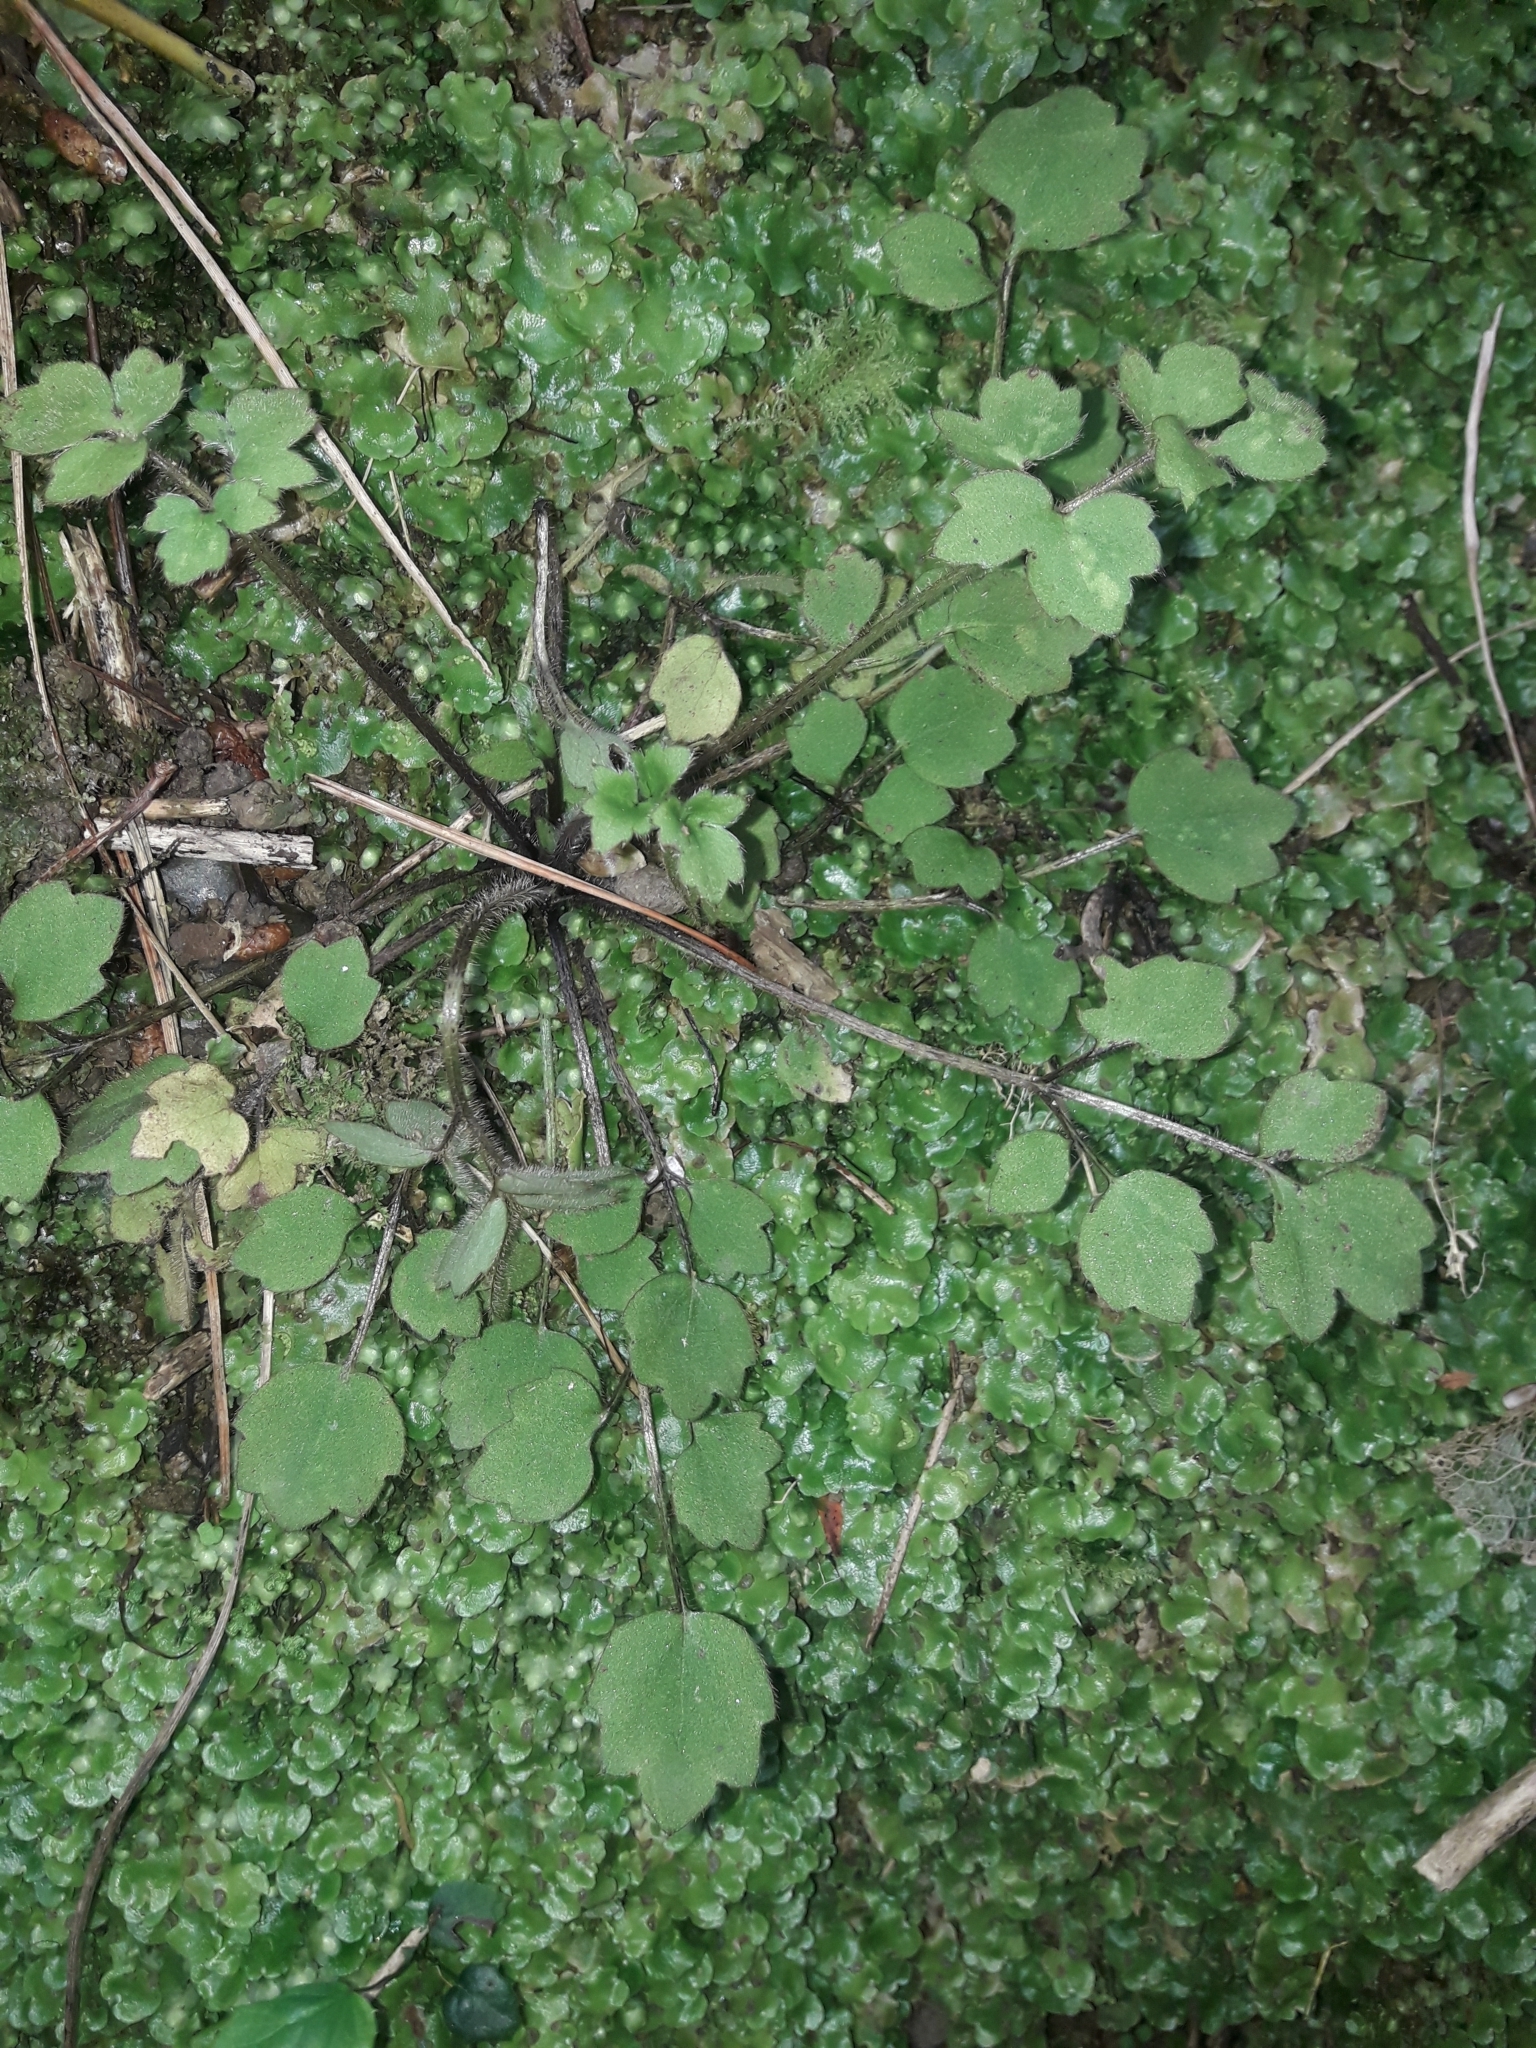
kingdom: Plantae
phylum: Tracheophyta
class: Magnoliopsida
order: Ranunculales
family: Ranunculaceae
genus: Ranunculus
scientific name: Ranunculus reflexus
